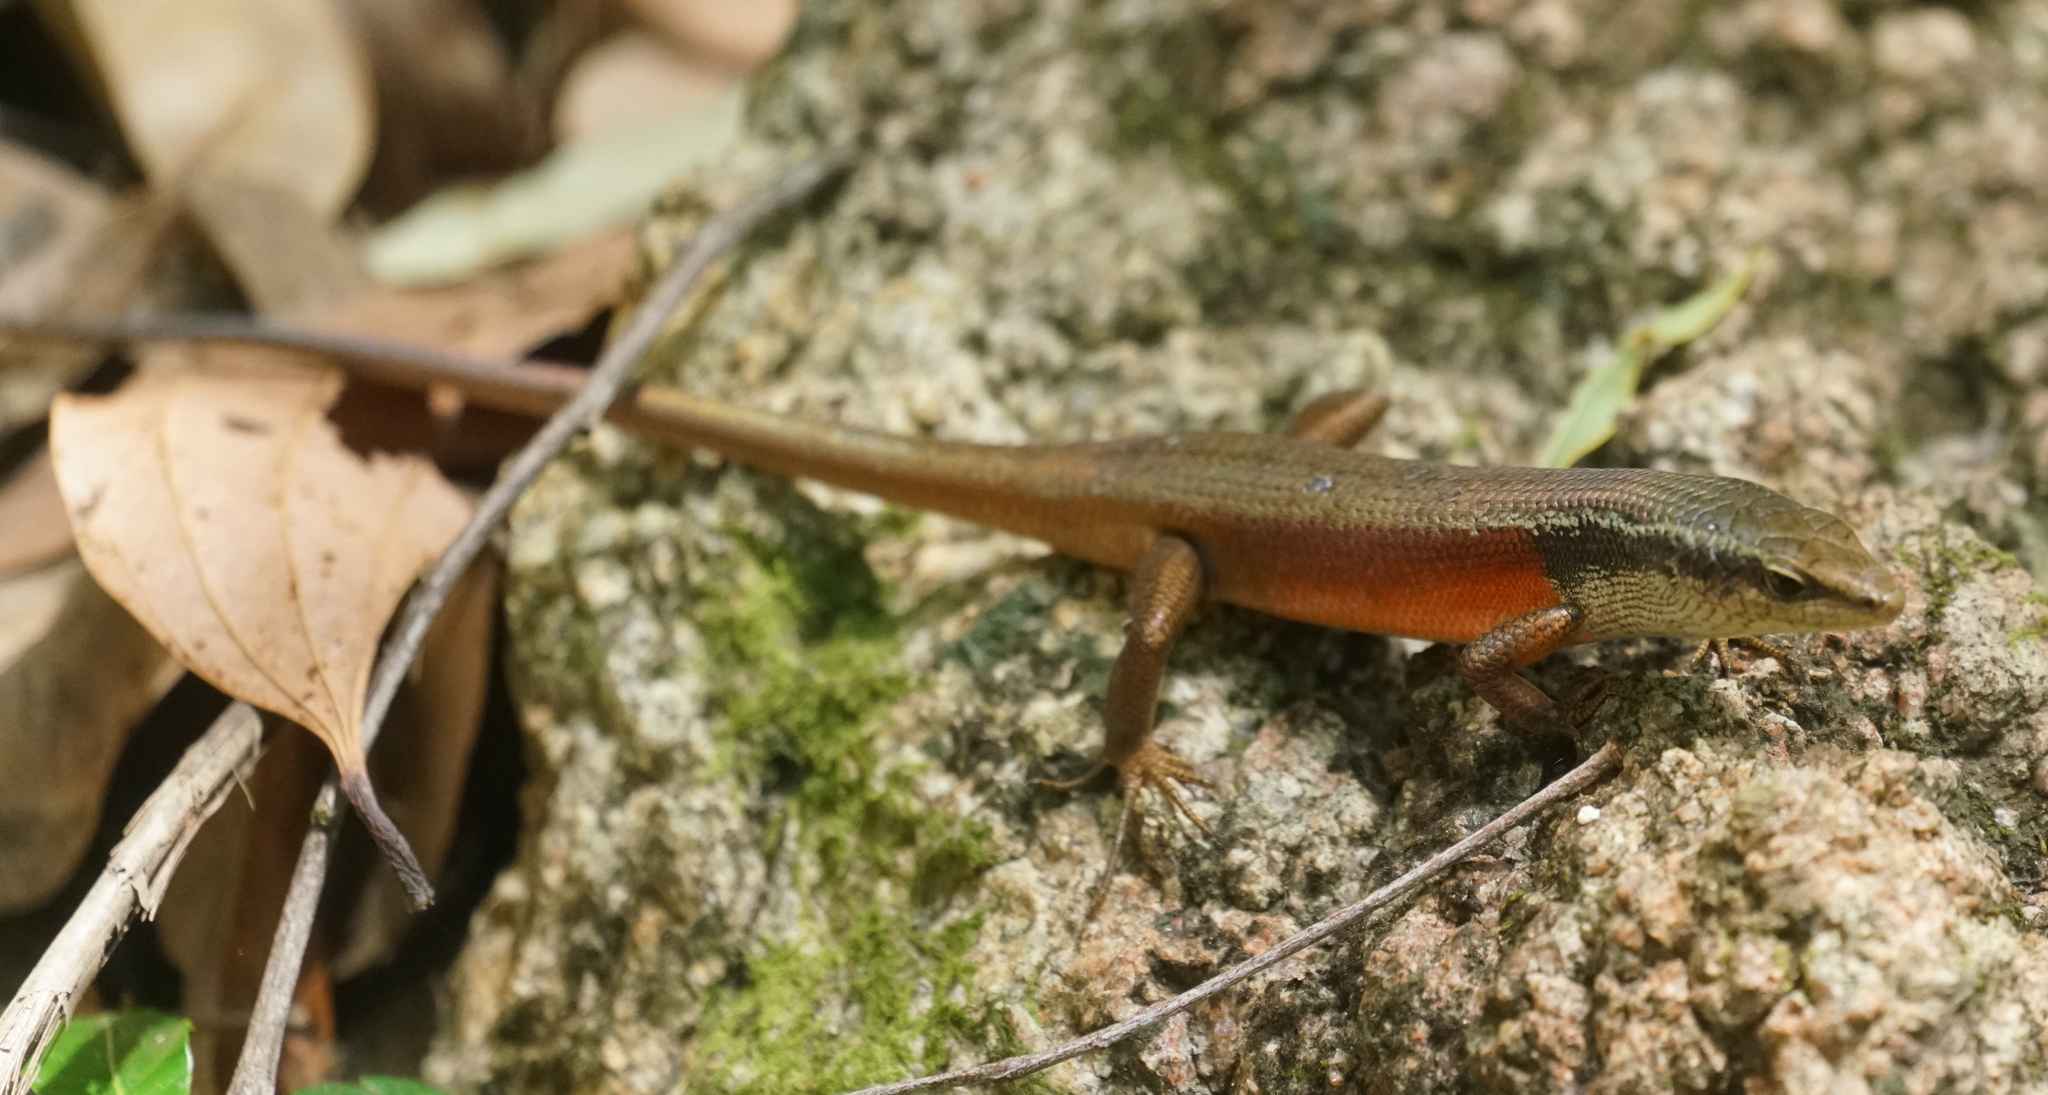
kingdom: Animalia
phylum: Chordata
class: Squamata
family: Scincidae
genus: Carlia
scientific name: Carlia longipes
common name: Closed-litter rainbow-skink
